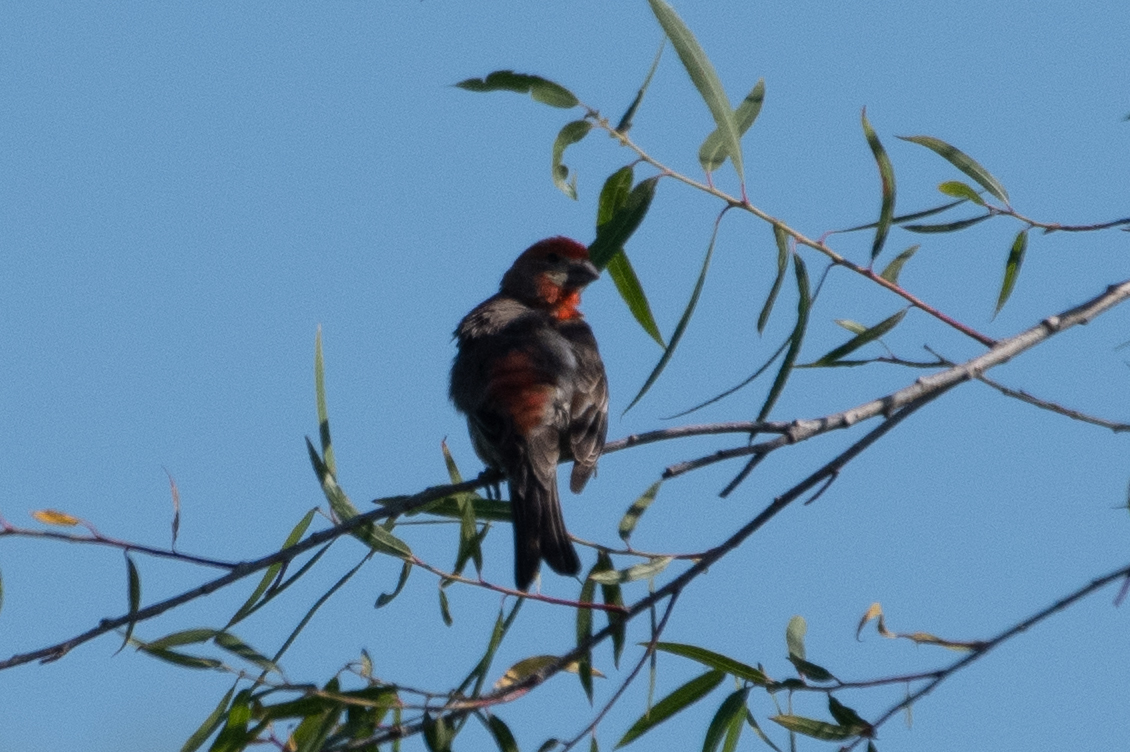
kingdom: Animalia
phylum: Chordata
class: Aves
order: Passeriformes
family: Fringillidae
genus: Haemorhous
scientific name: Haemorhous mexicanus
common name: House finch
